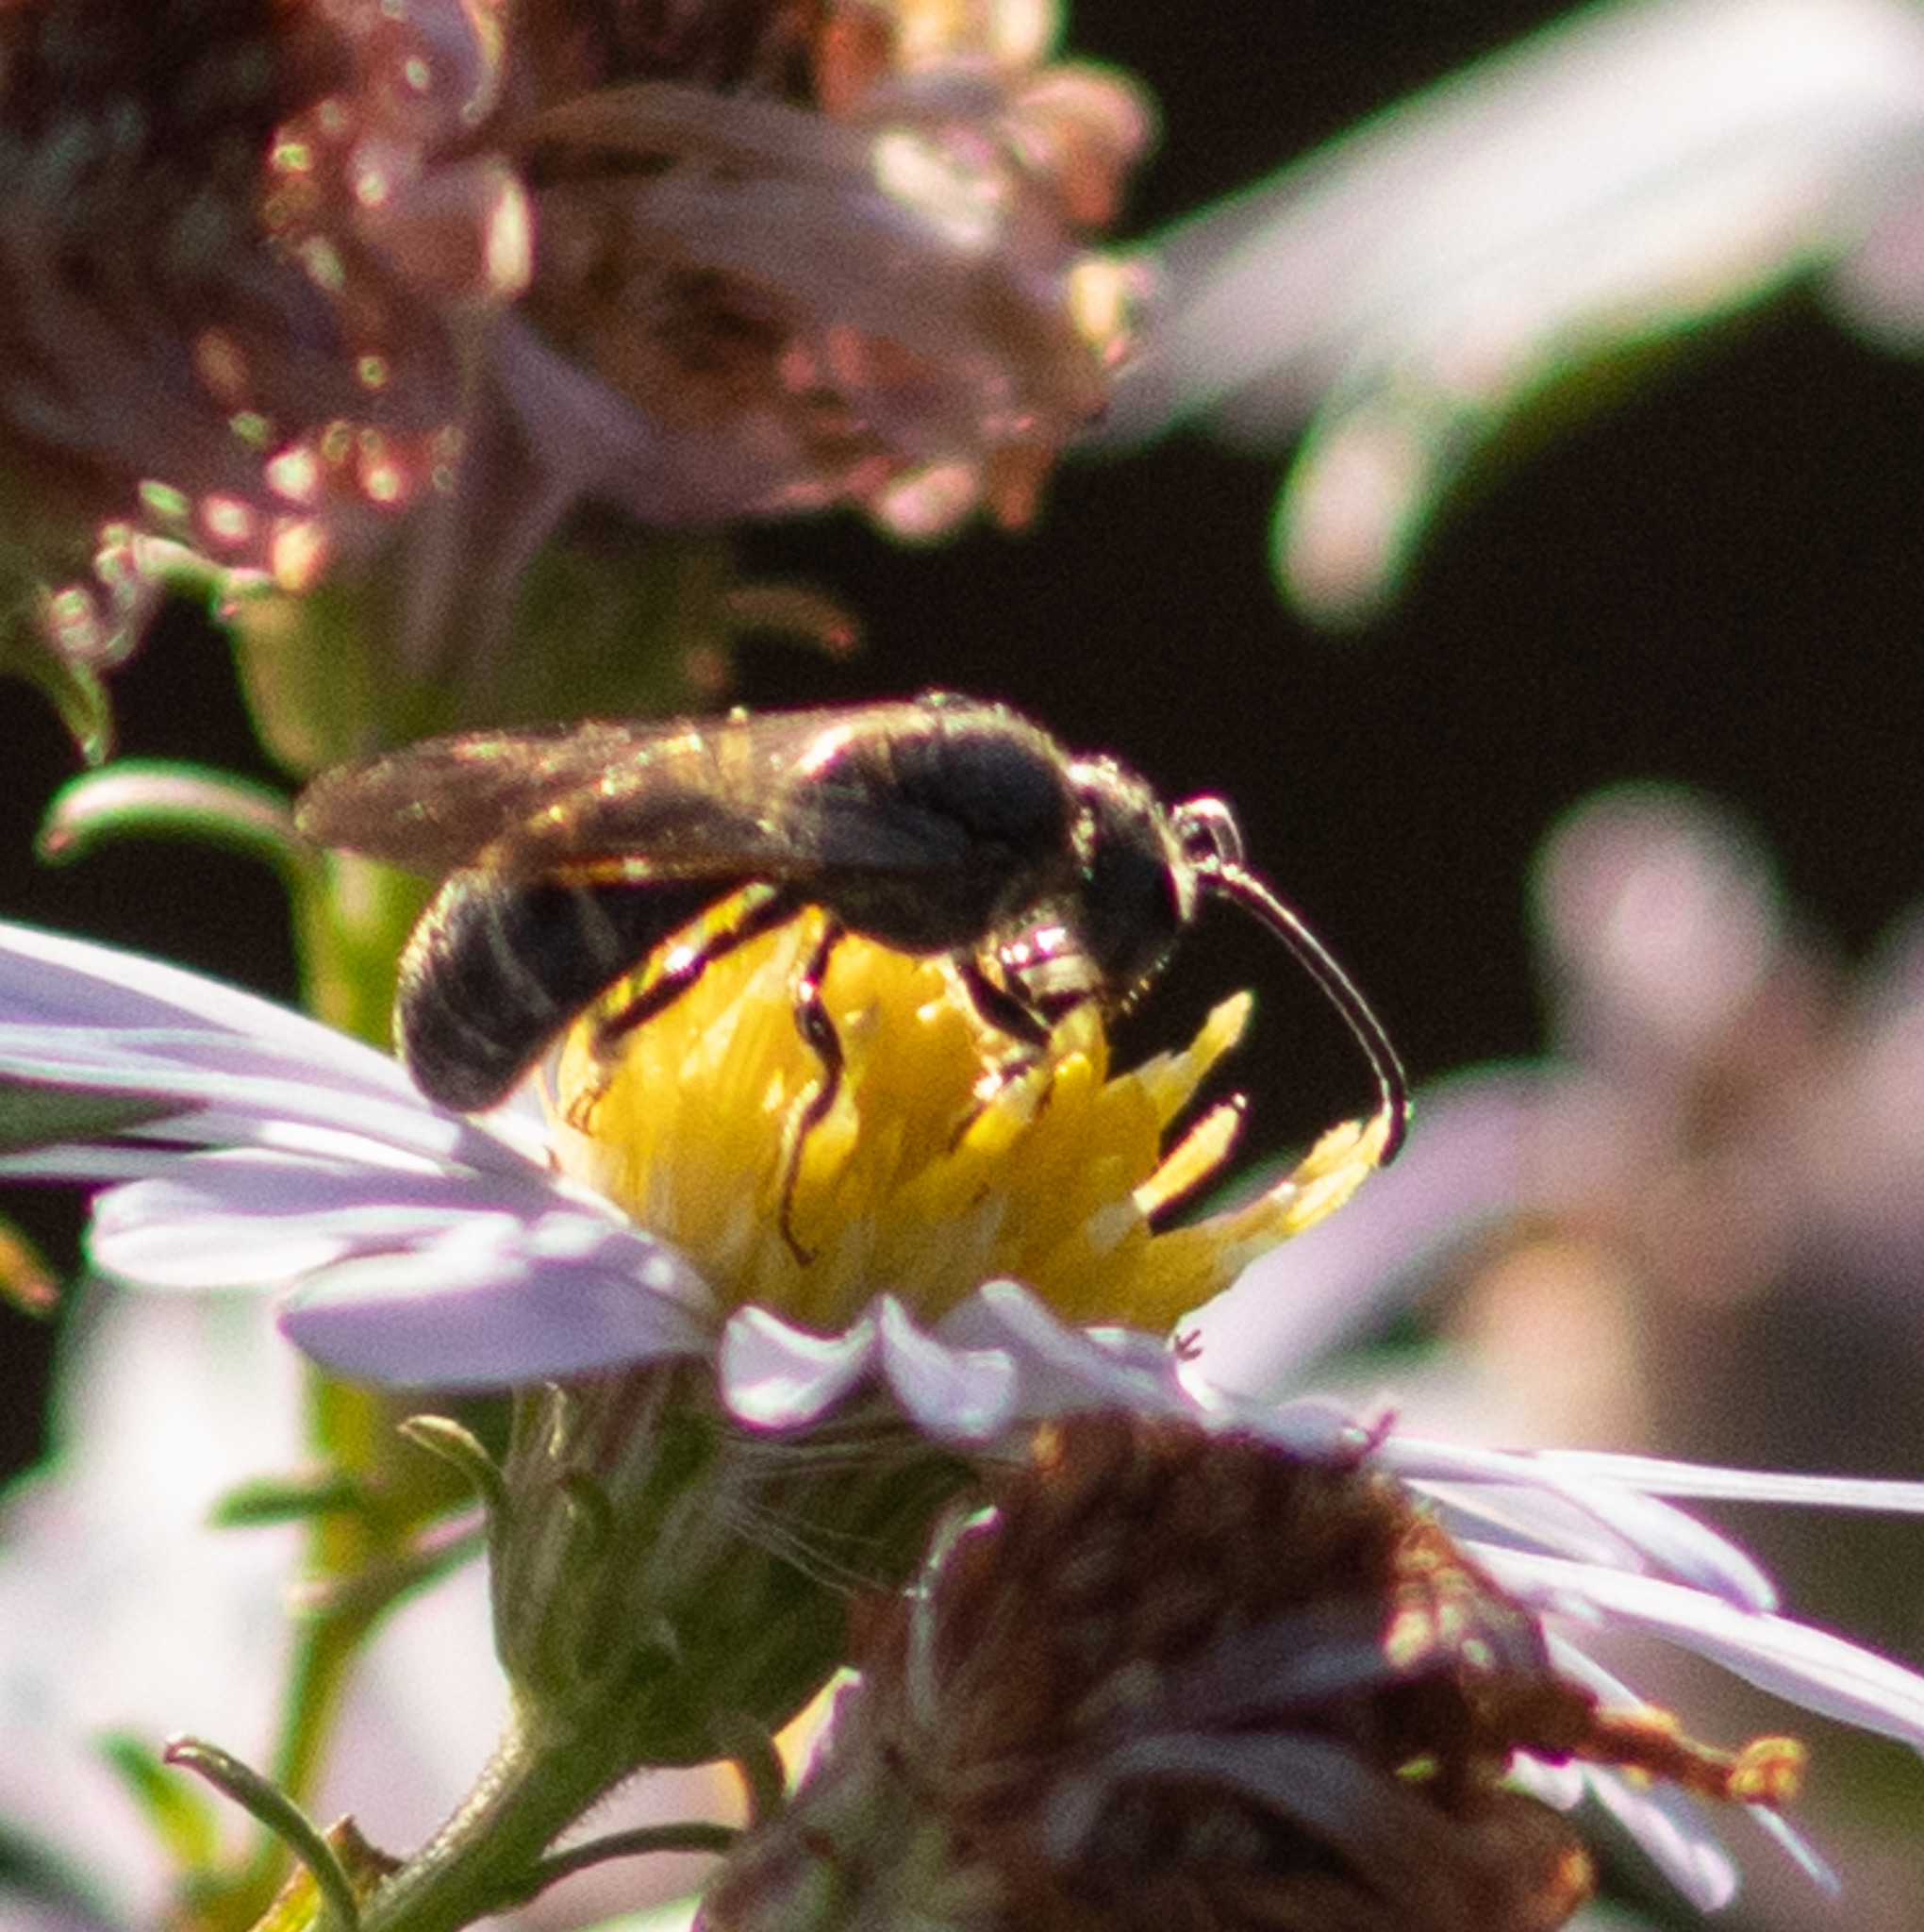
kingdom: Animalia
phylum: Arthropoda
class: Insecta
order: Hymenoptera
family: Halictidae
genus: Lasioglossum
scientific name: Lasioglossum fuscipenne
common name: Brown-winged sweat bee
